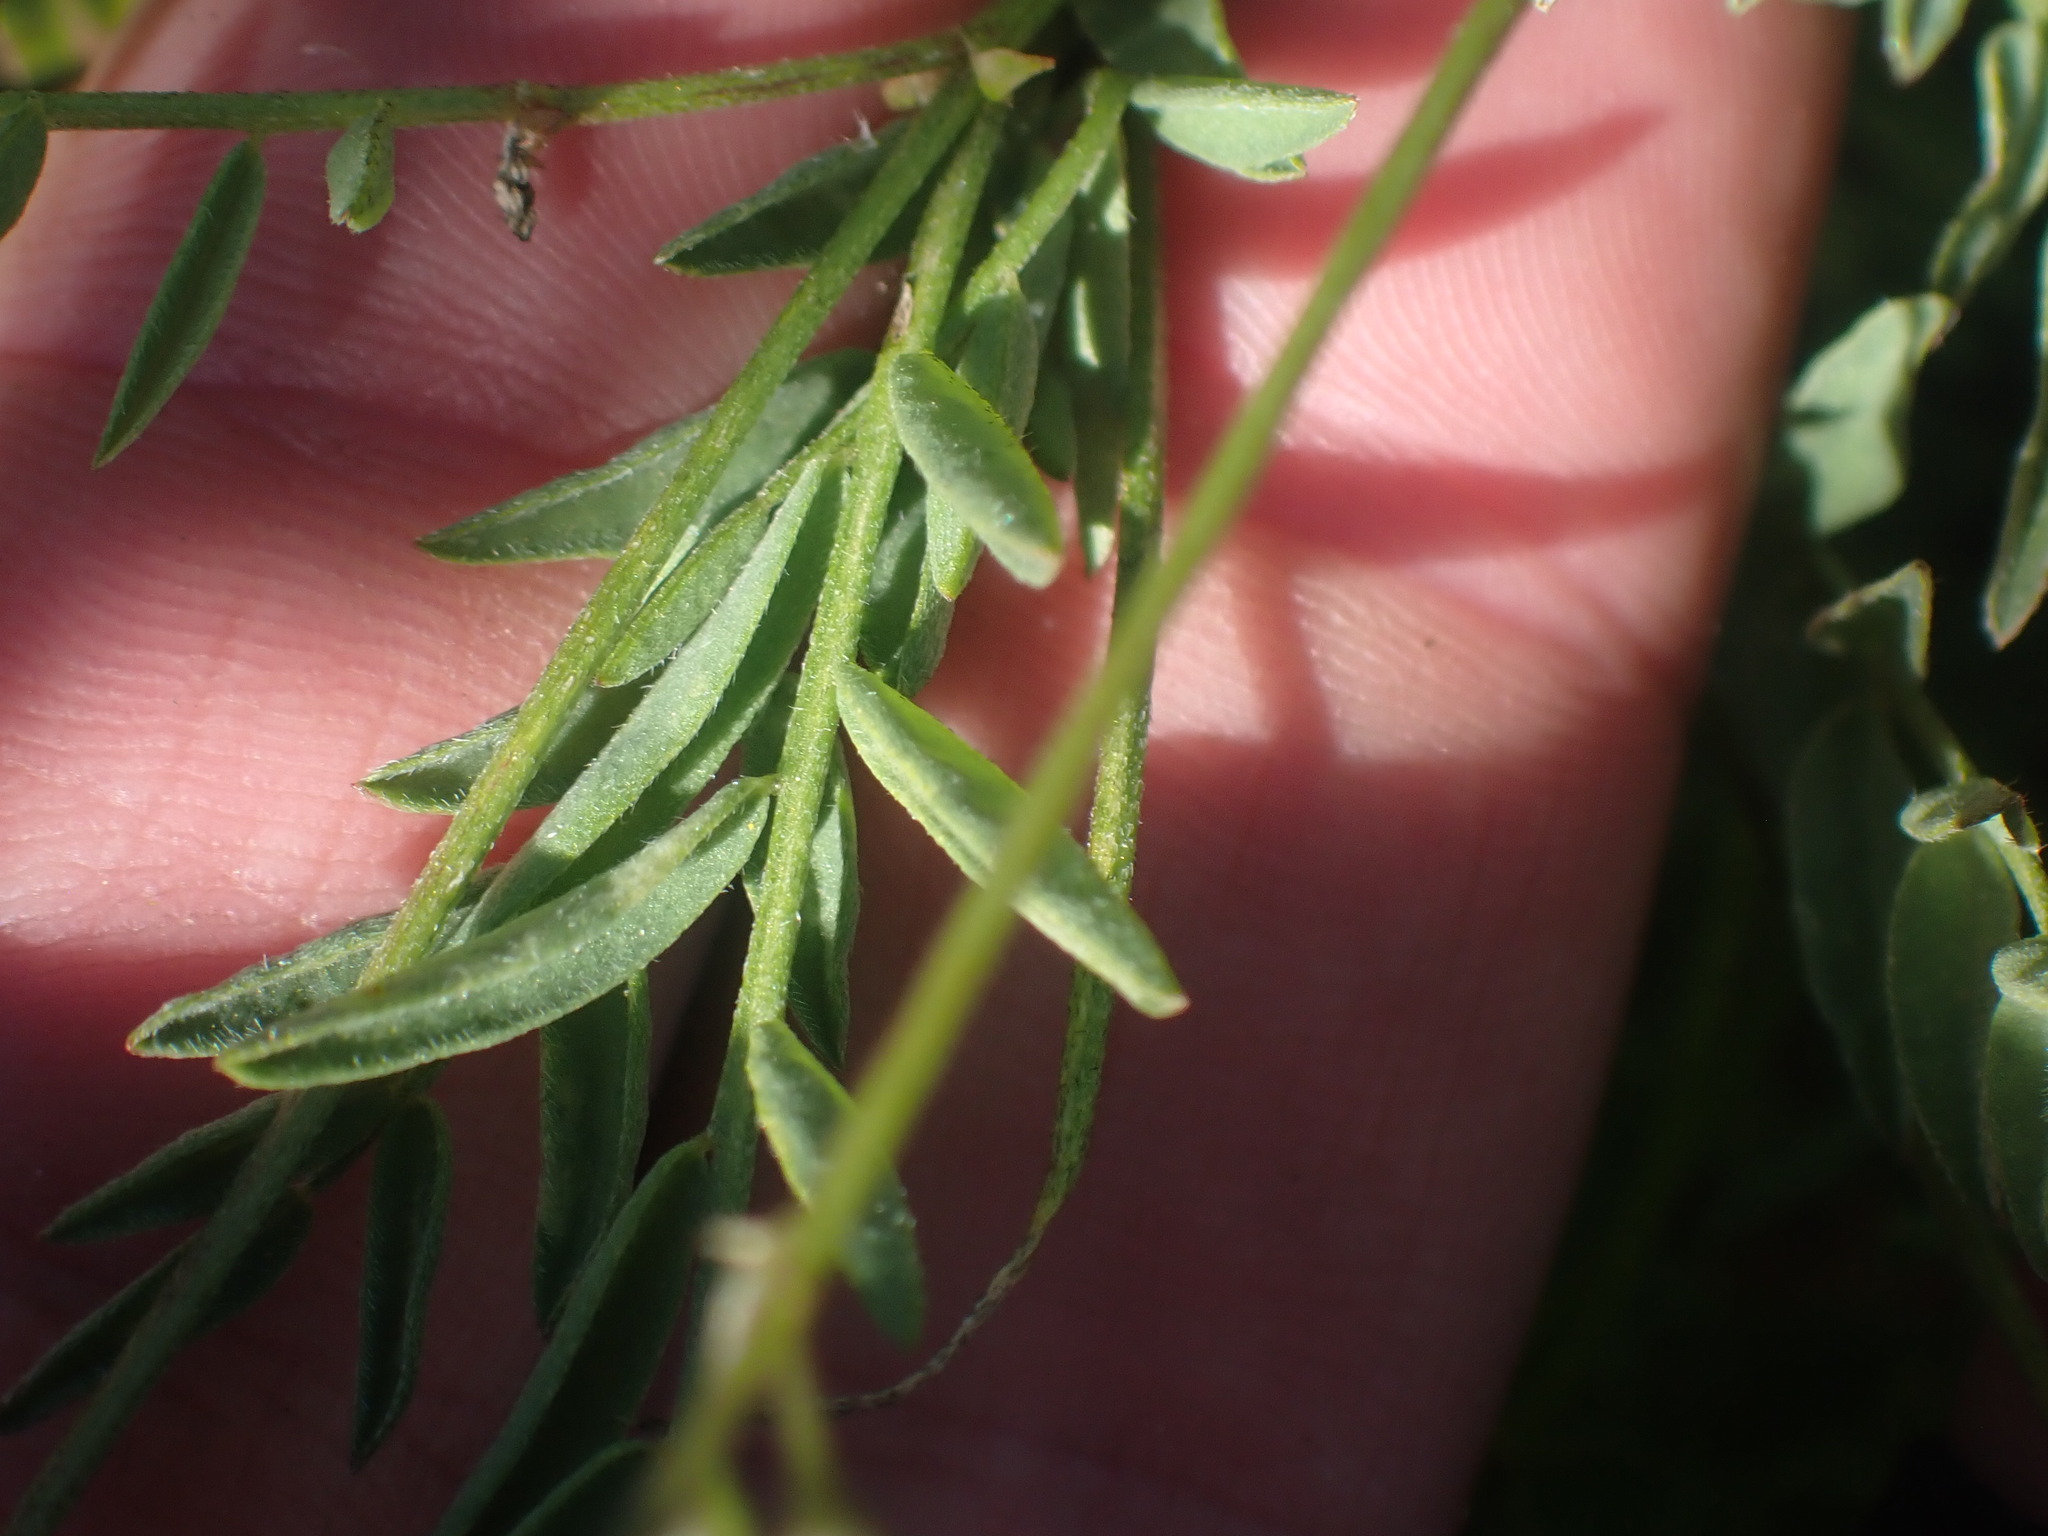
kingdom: Plantae
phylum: Tracheophyta
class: Magnoliopsida
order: Fabales
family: Fabaceae
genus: Astragalus
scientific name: Astragalus bourgovii
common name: Bourgeau's milk-vetch
